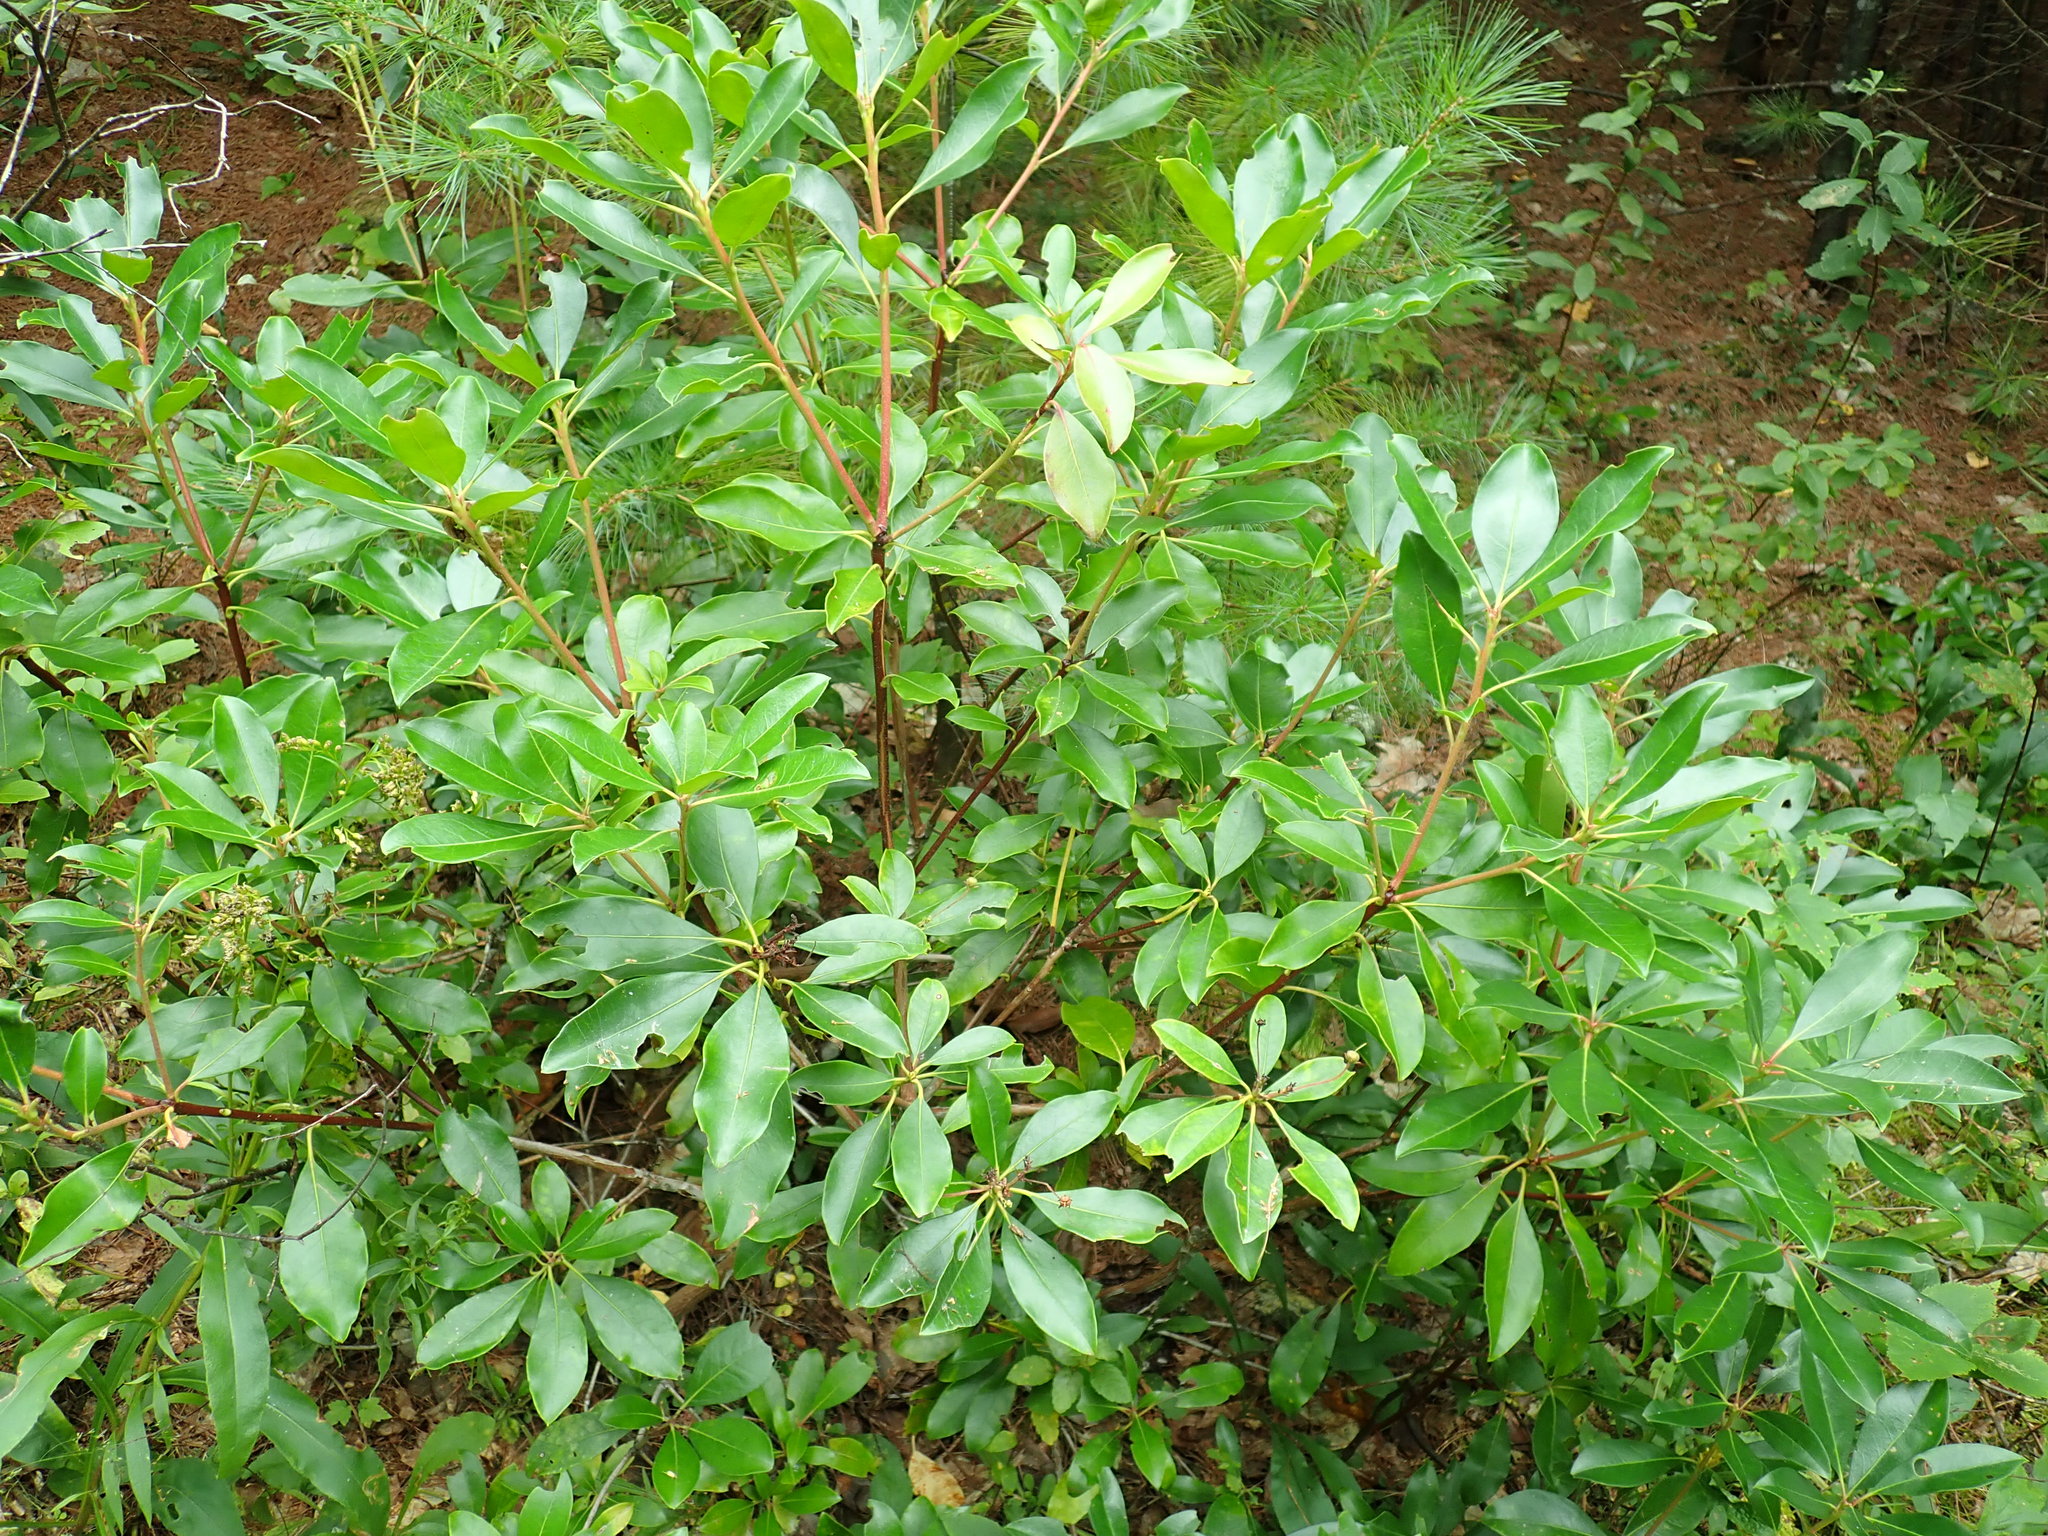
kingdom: Plantae
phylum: Tracheophyta
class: Magnoliopsida
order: Ericales
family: Ericaceae
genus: Kalmia
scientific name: Kalmia latifolia
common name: Mountain-laurel
